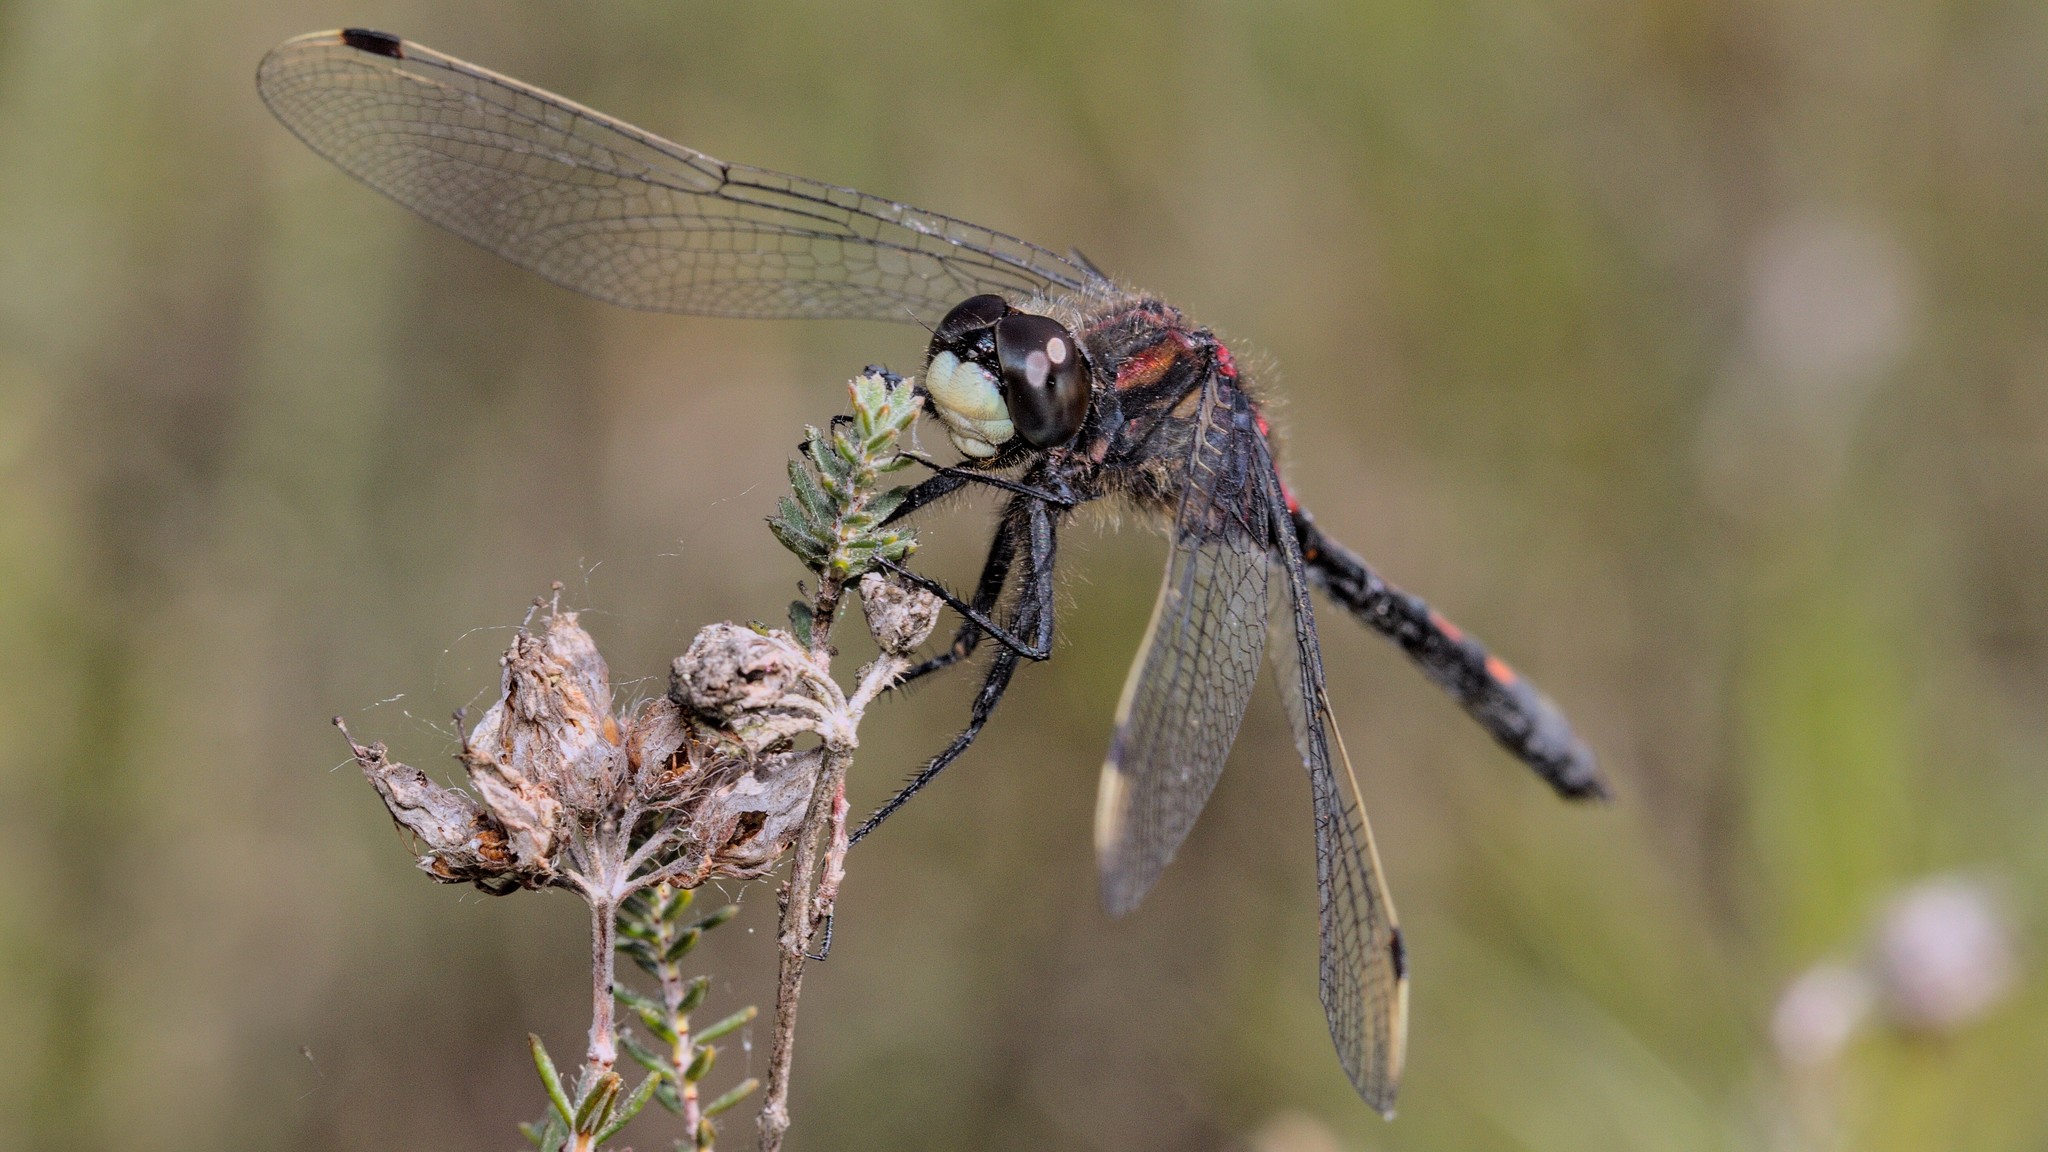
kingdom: Animalia
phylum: Arthropoda
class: Insecta
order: Odonata
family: Libellulidae
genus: Leucorrhinia
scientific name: Leucorrhinia dubia
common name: White-faced darter
